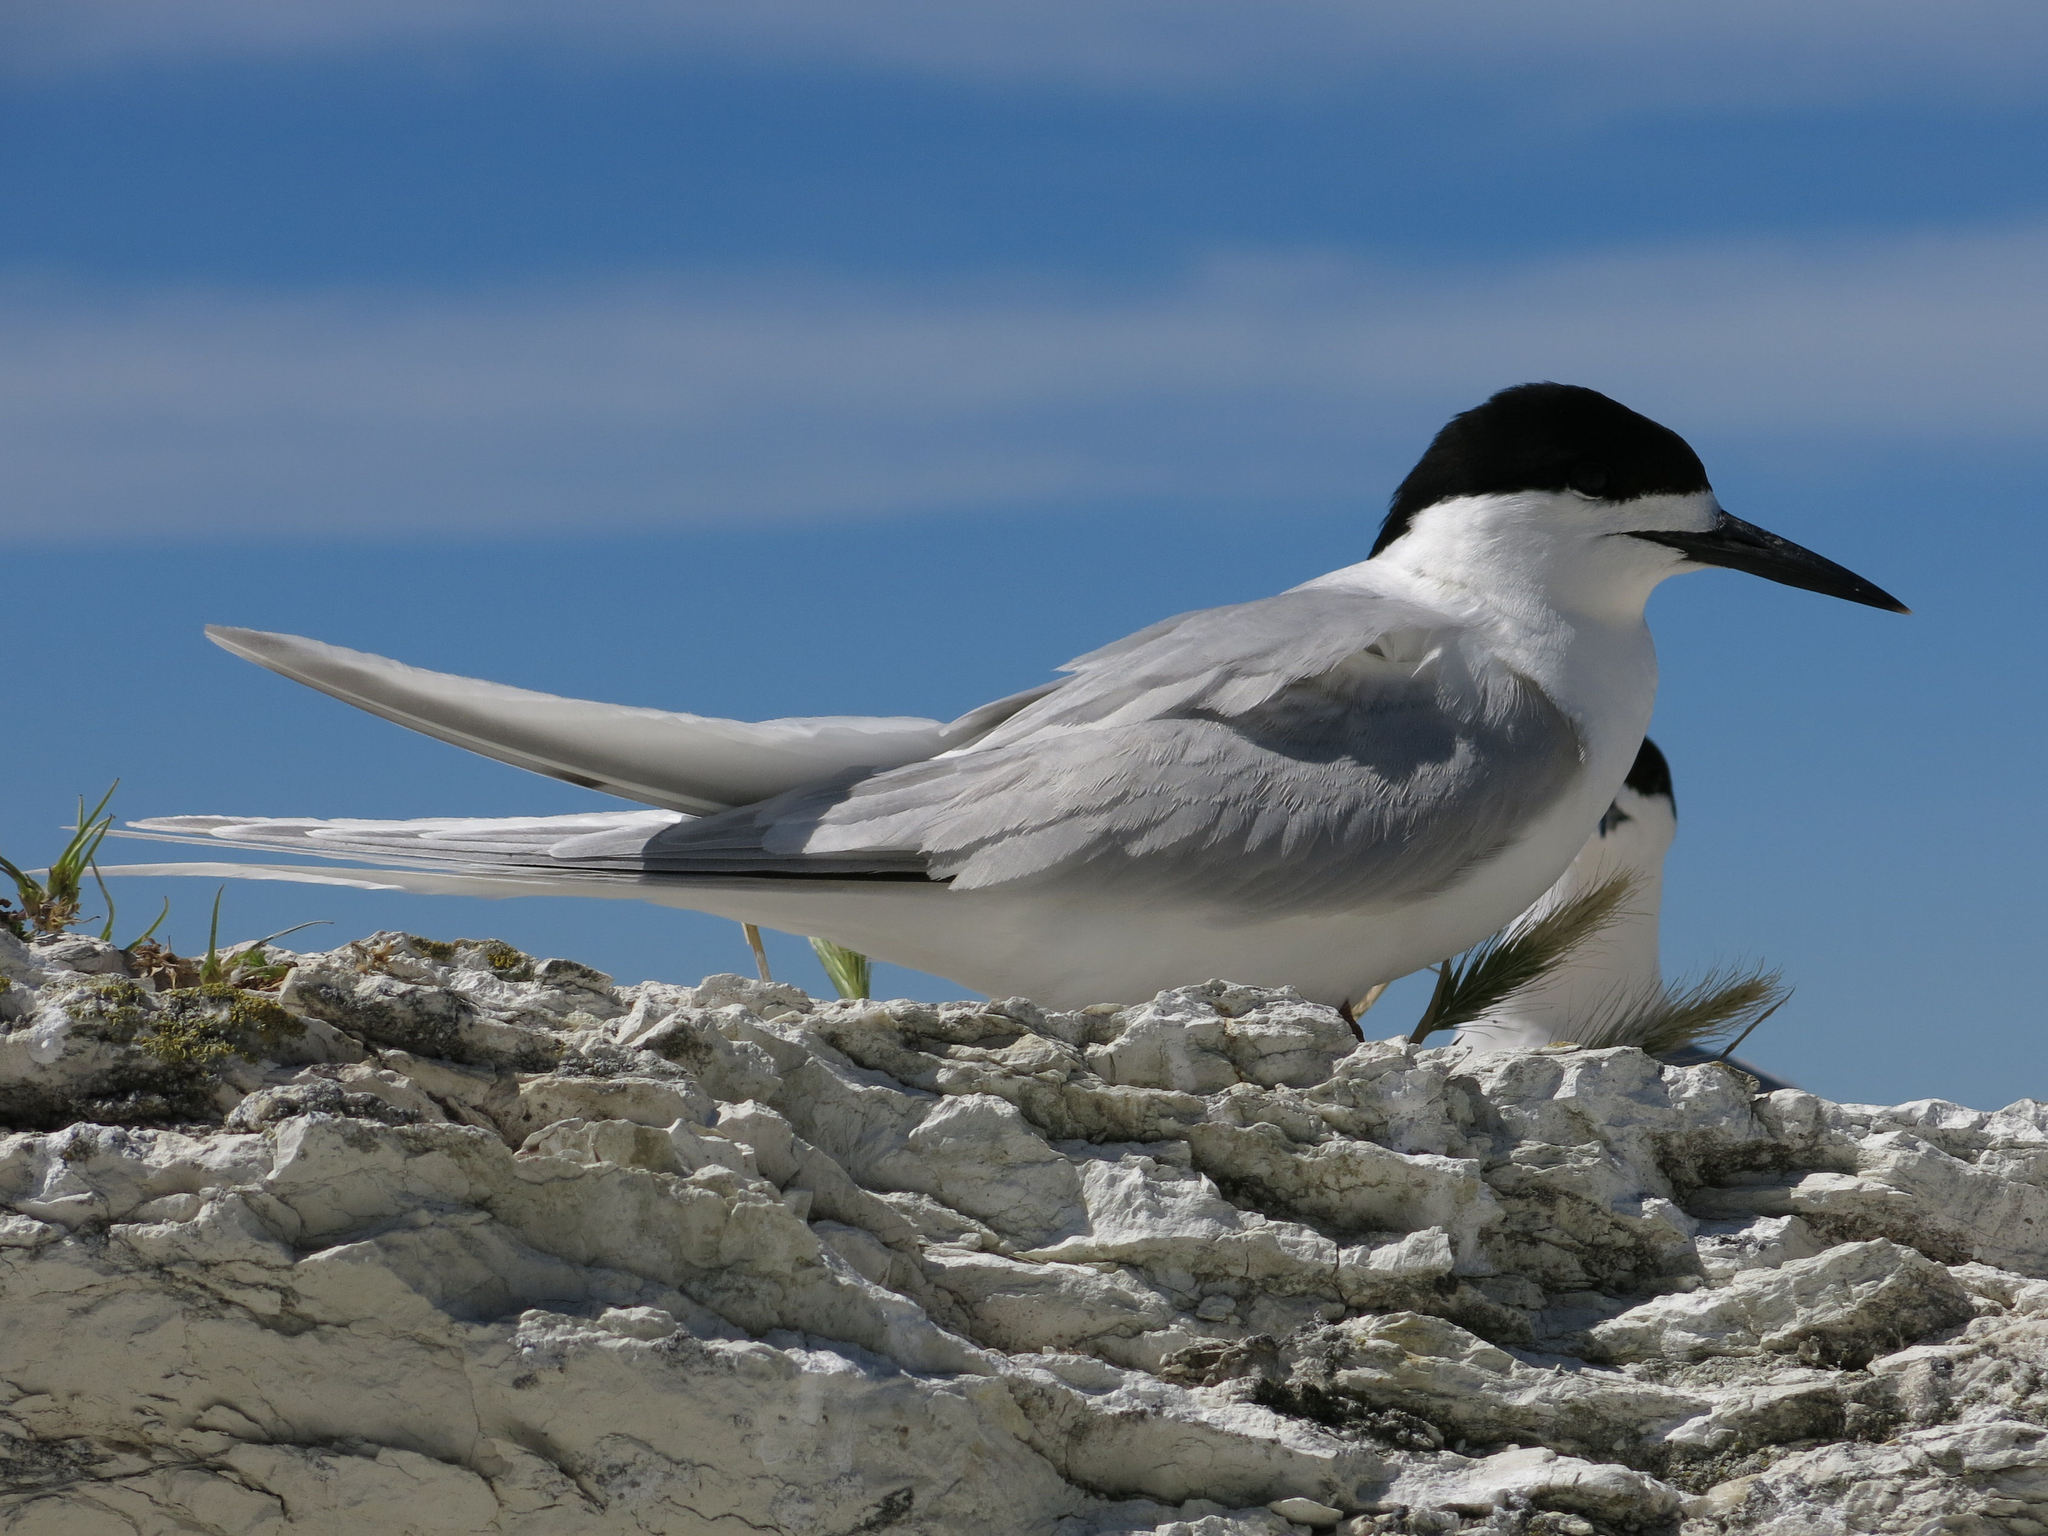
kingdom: Animalia
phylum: Chordata
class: Aves
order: Charadriiformes
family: Laridae
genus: Sterna
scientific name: Sterna striata
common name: White-fronted tern
